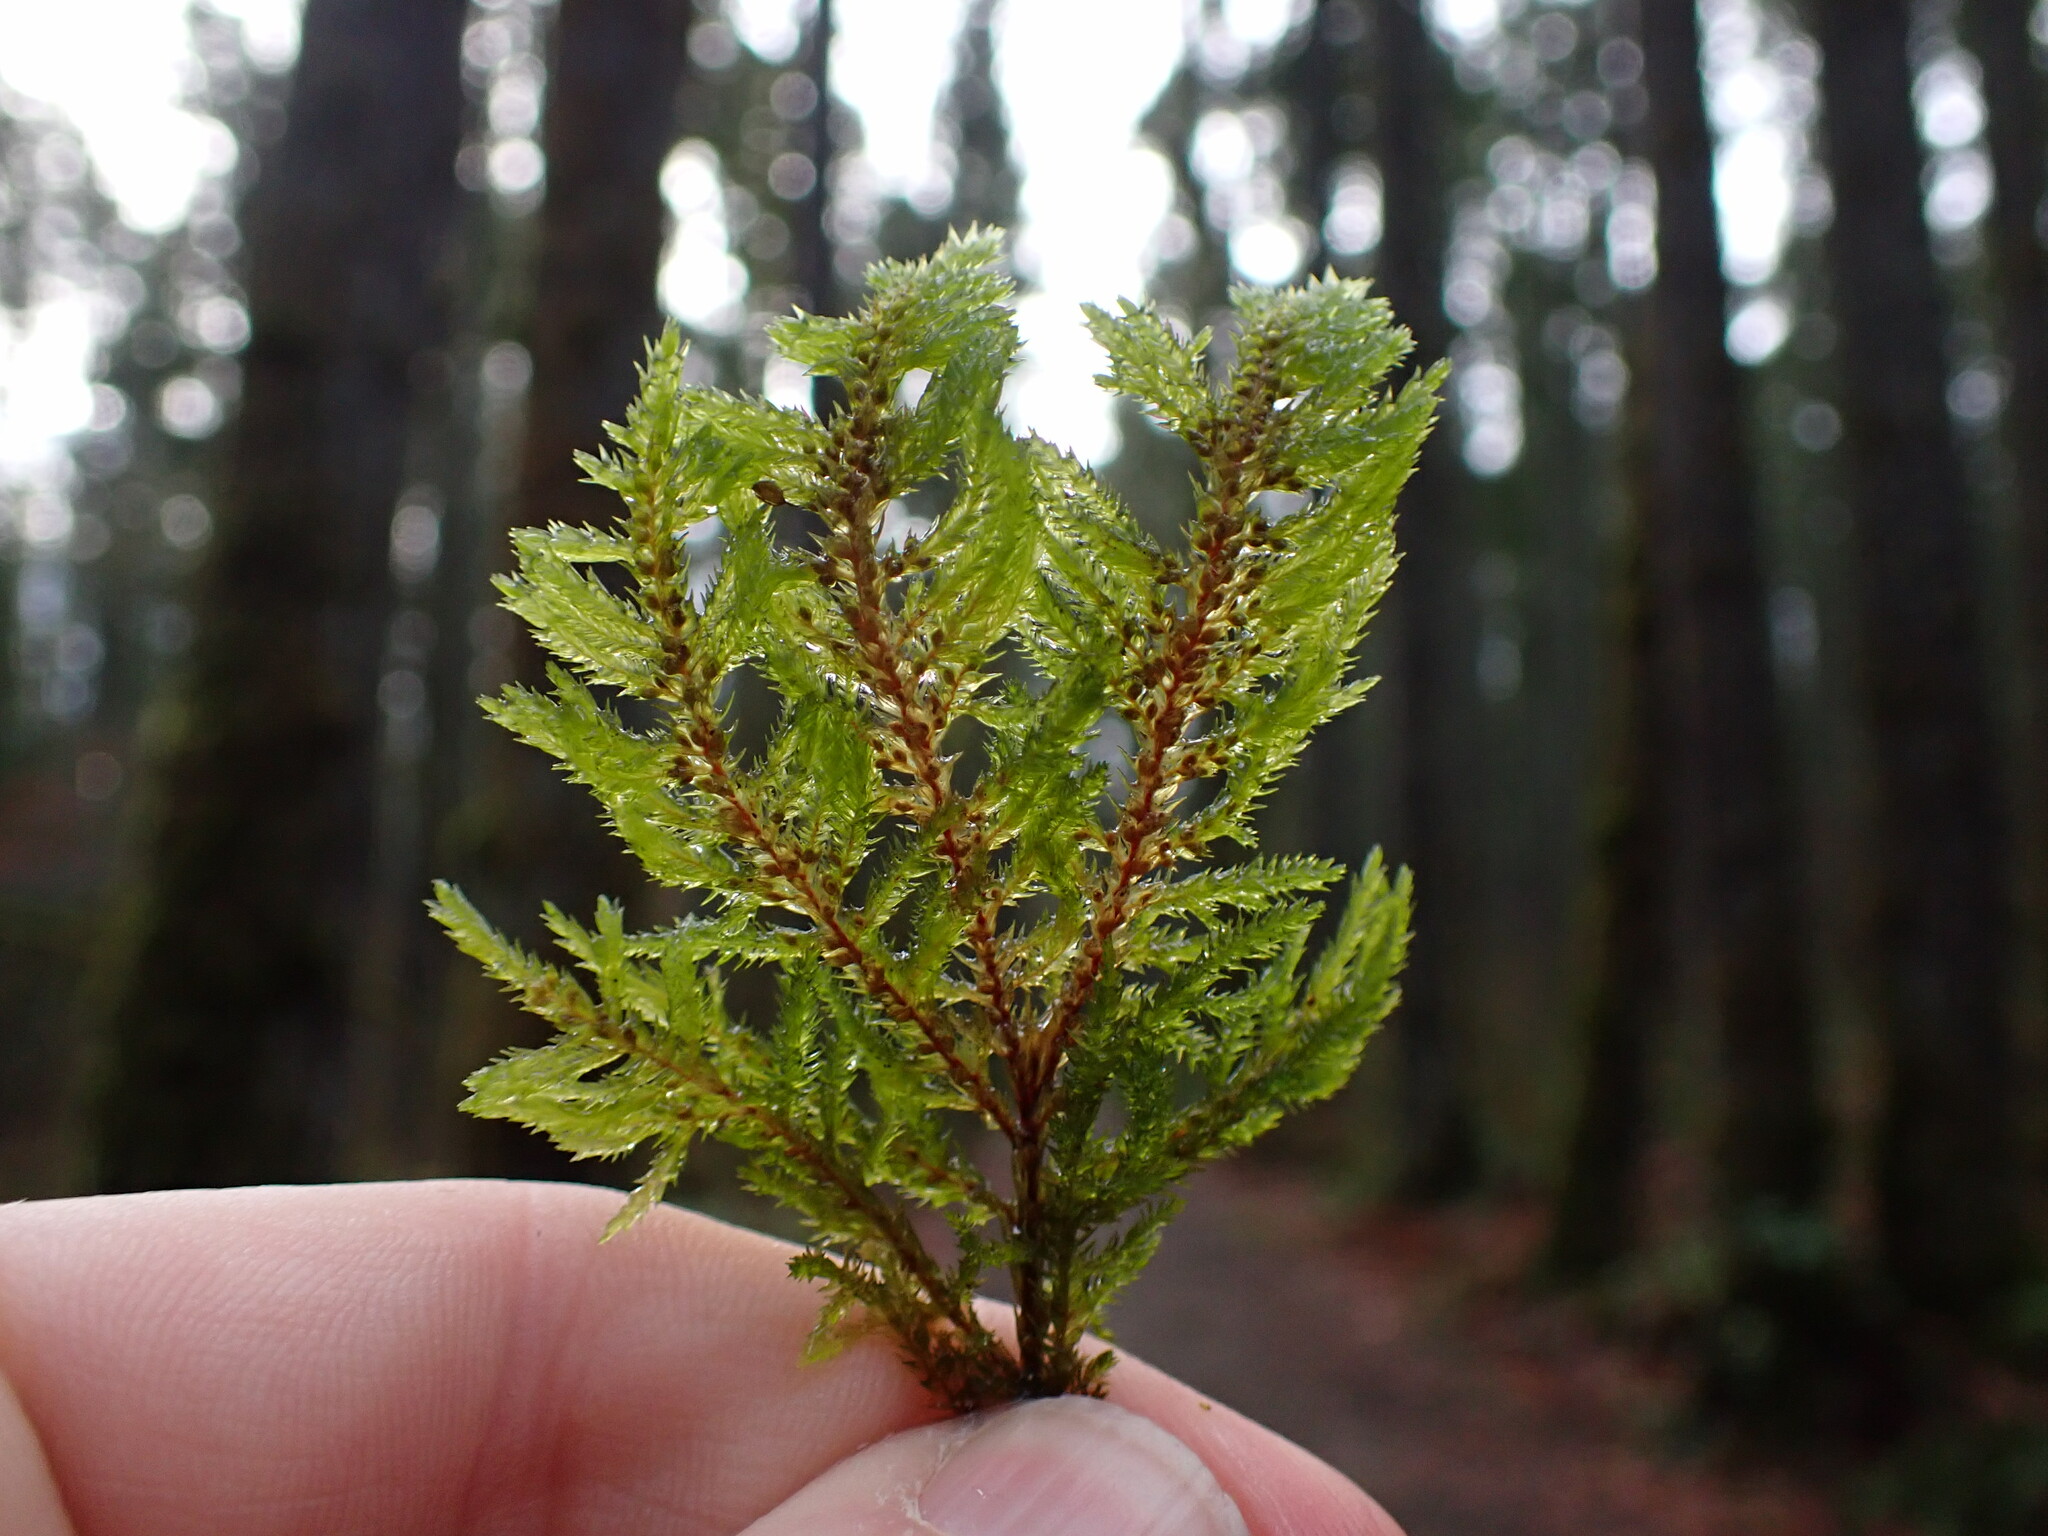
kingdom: Plantae
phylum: Bryophyta
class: Bryopsida
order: Hypnales
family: Cryphaeaceae
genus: Dendroalsia
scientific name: Dendroalsia abietina
